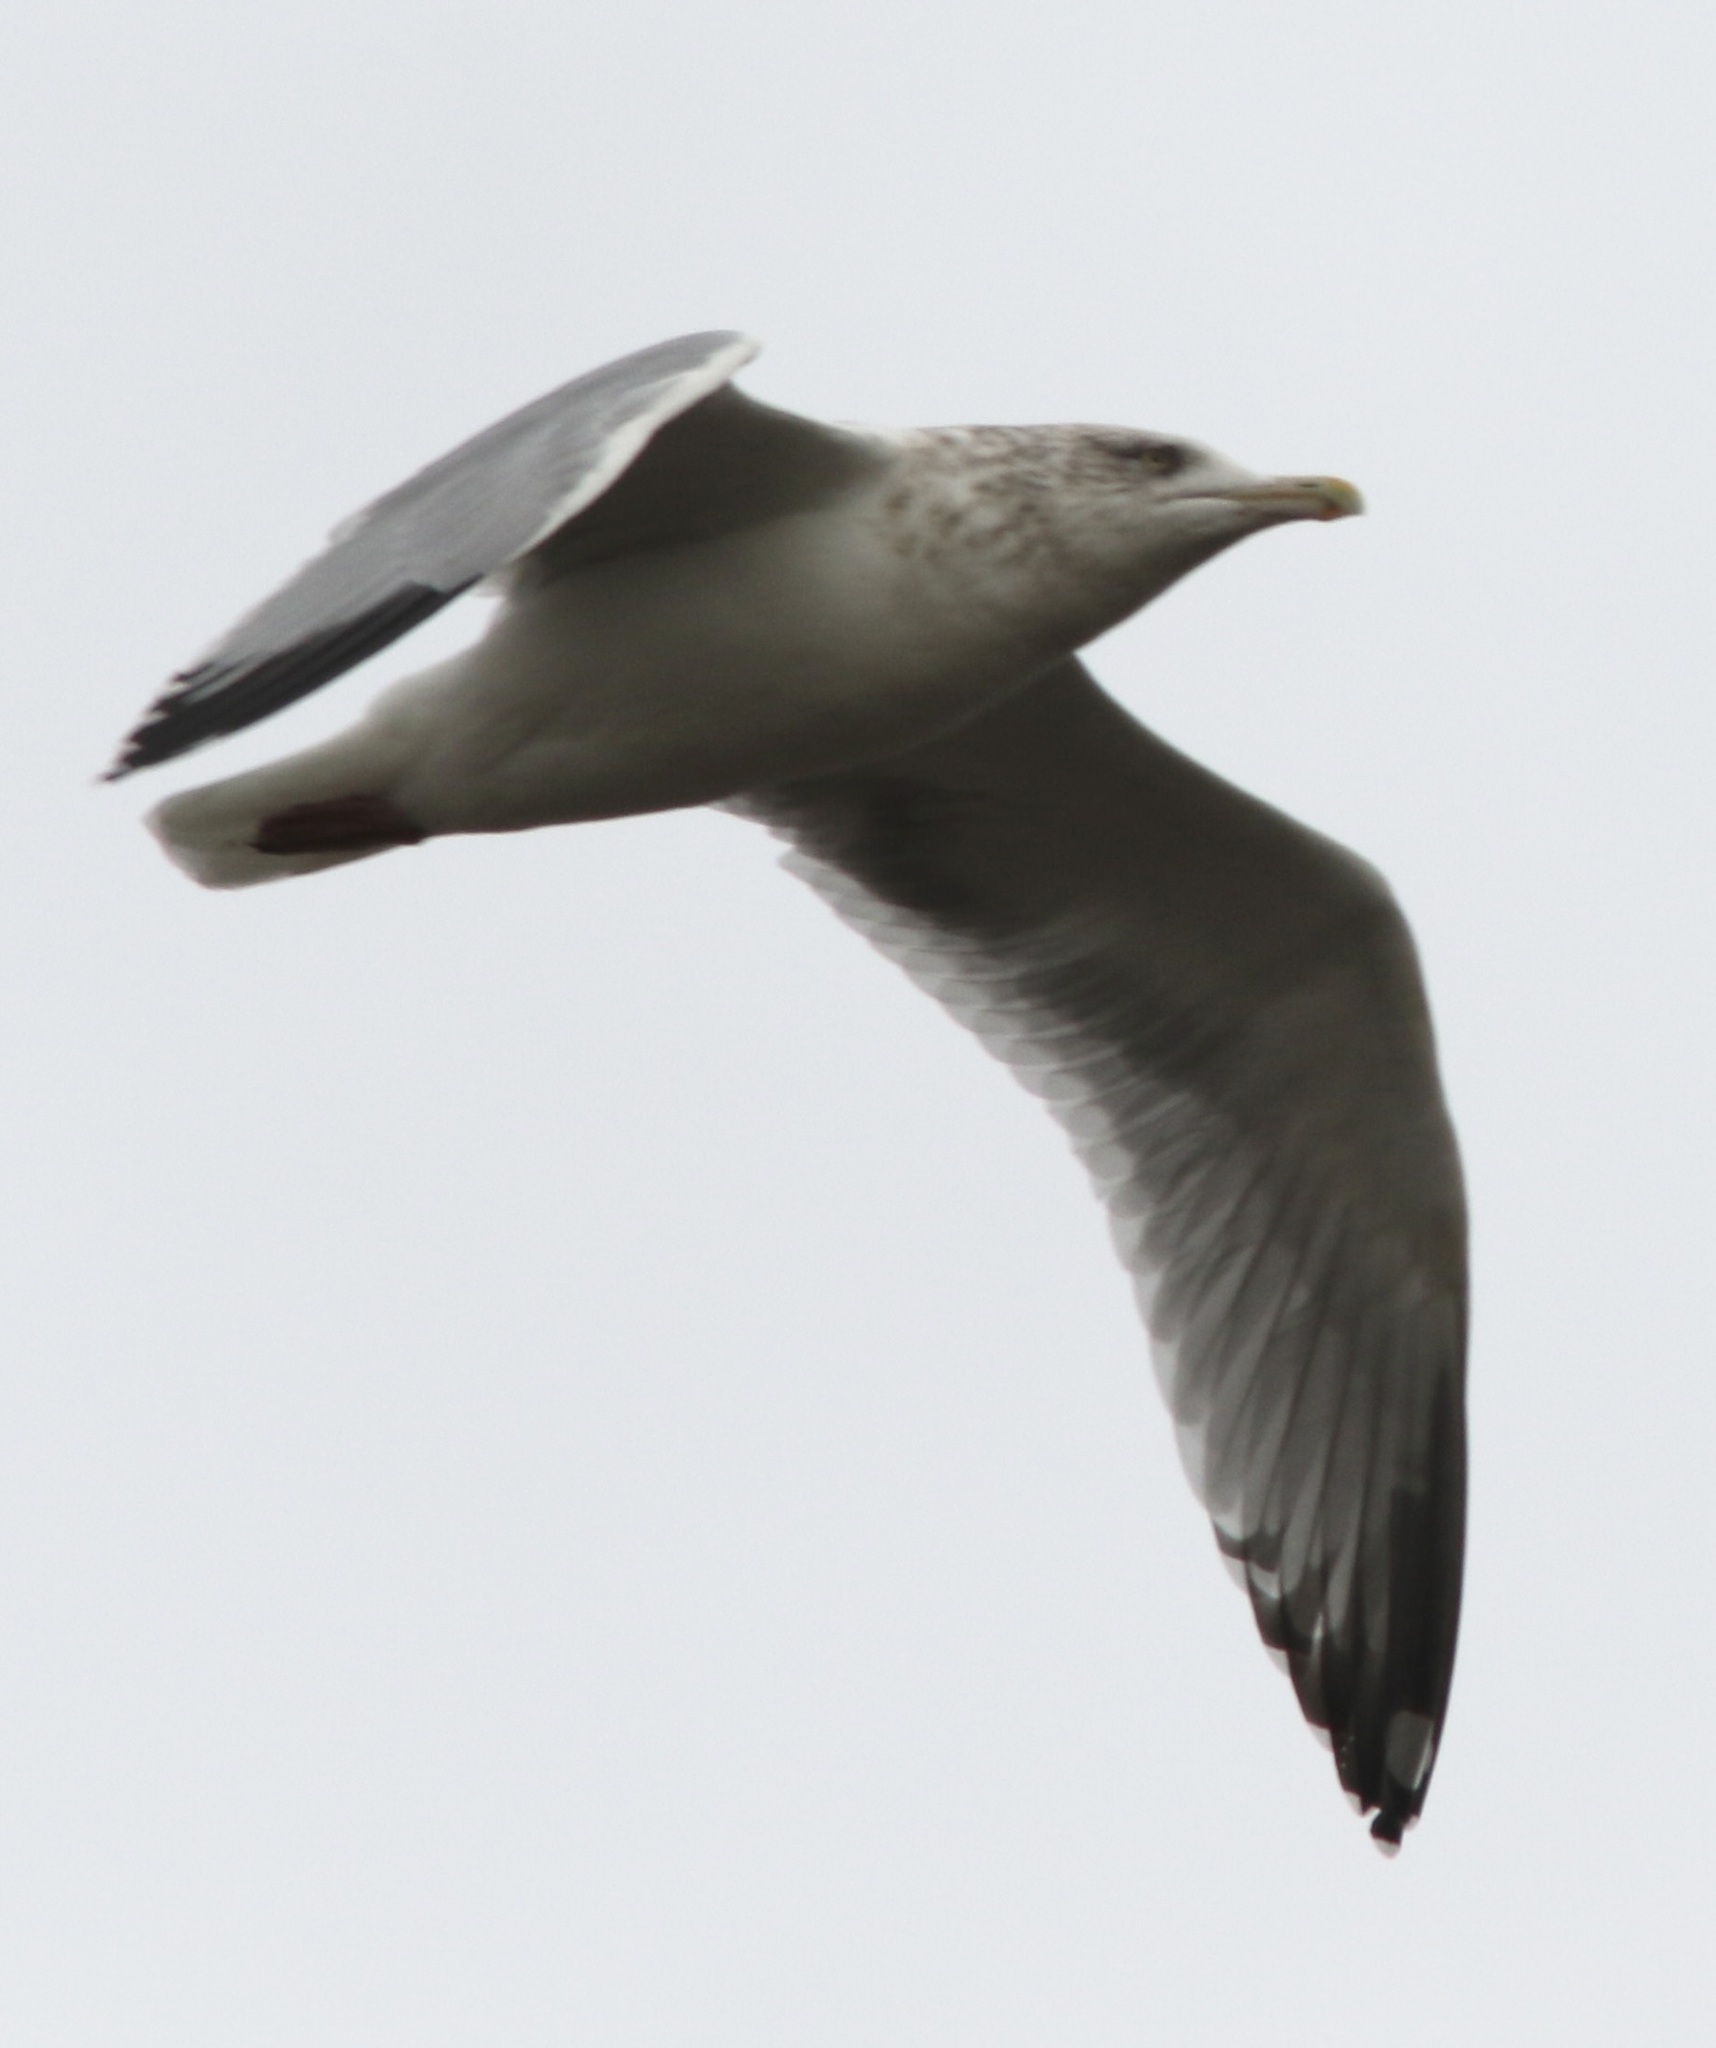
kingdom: Animalia
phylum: Chordata
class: Aves
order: Charadriiformes
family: Laridae
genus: Larus
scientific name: Larus argentatus
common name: Herring gull
